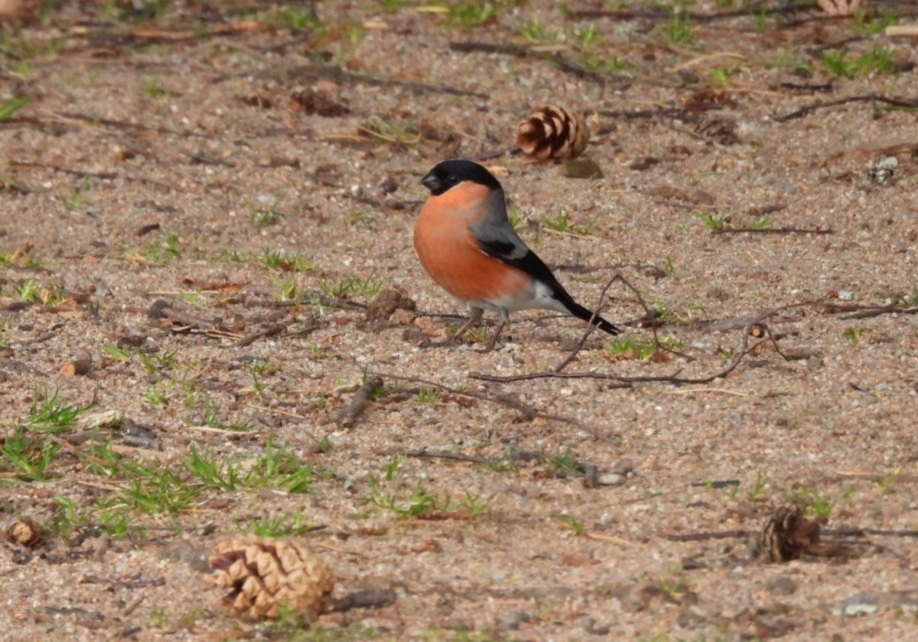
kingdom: Animalia
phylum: Chordata
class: Aves
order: Passeriformes
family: Fringillidae
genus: Pyrrhula
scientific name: Pyrrhula pyrrhula
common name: Eurasian bullfinch
